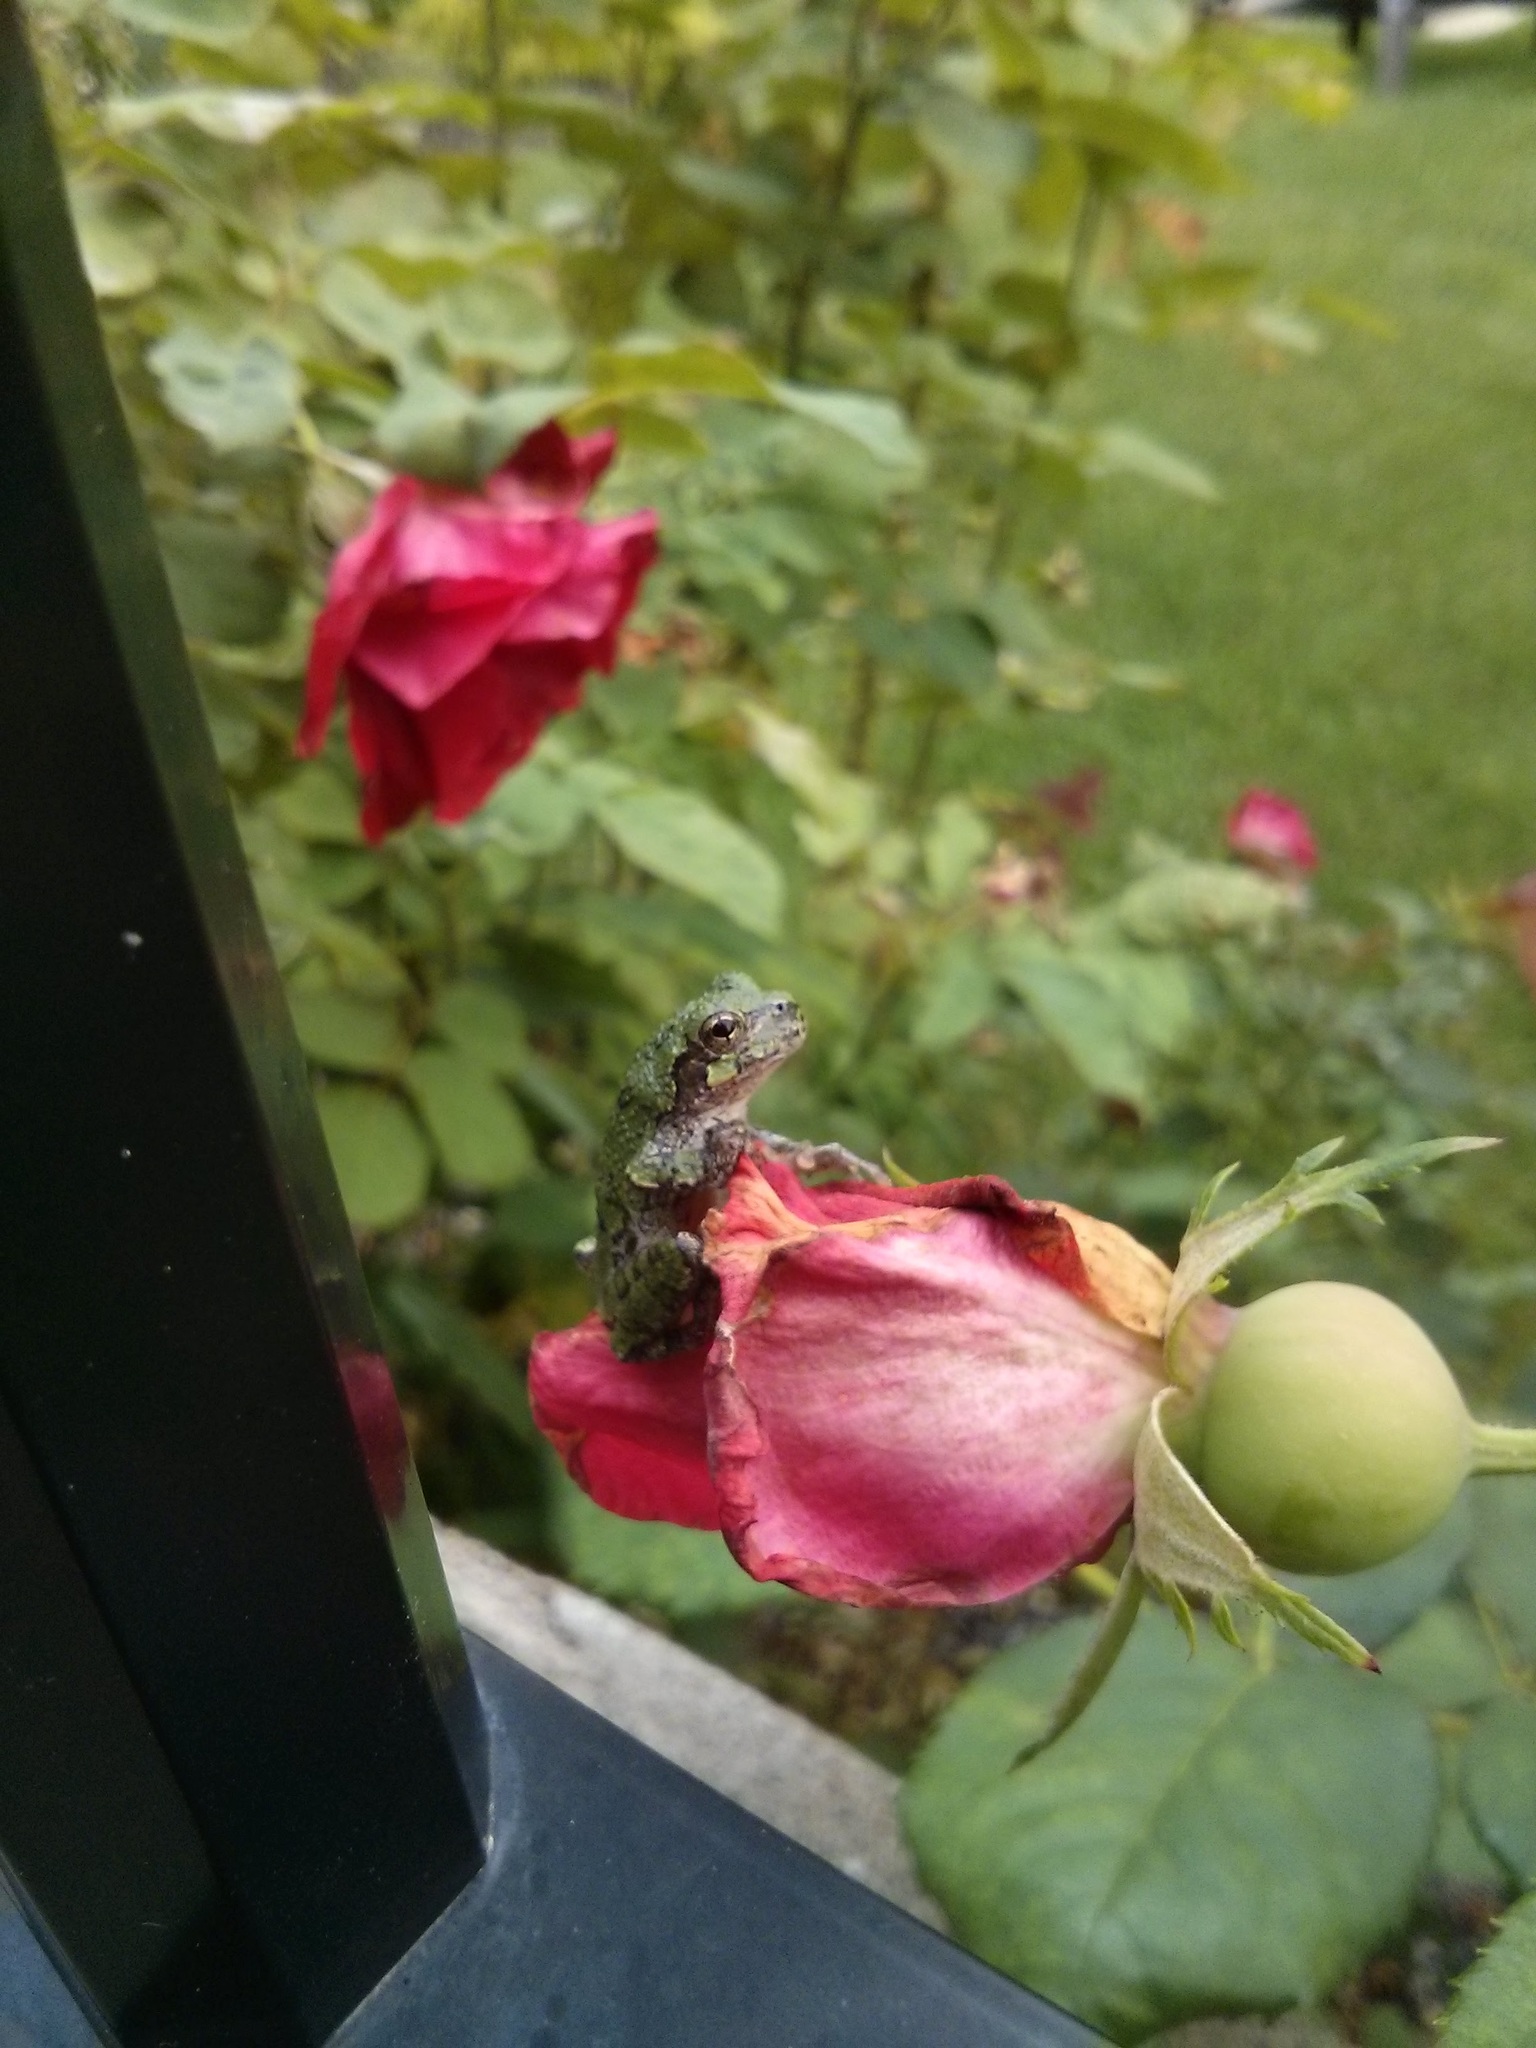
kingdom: Animalia
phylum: Chordata
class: Amphibia
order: Anura
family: Hylidae
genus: Dryophytes
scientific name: Dryophytes versicolor
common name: Gray treefrog
